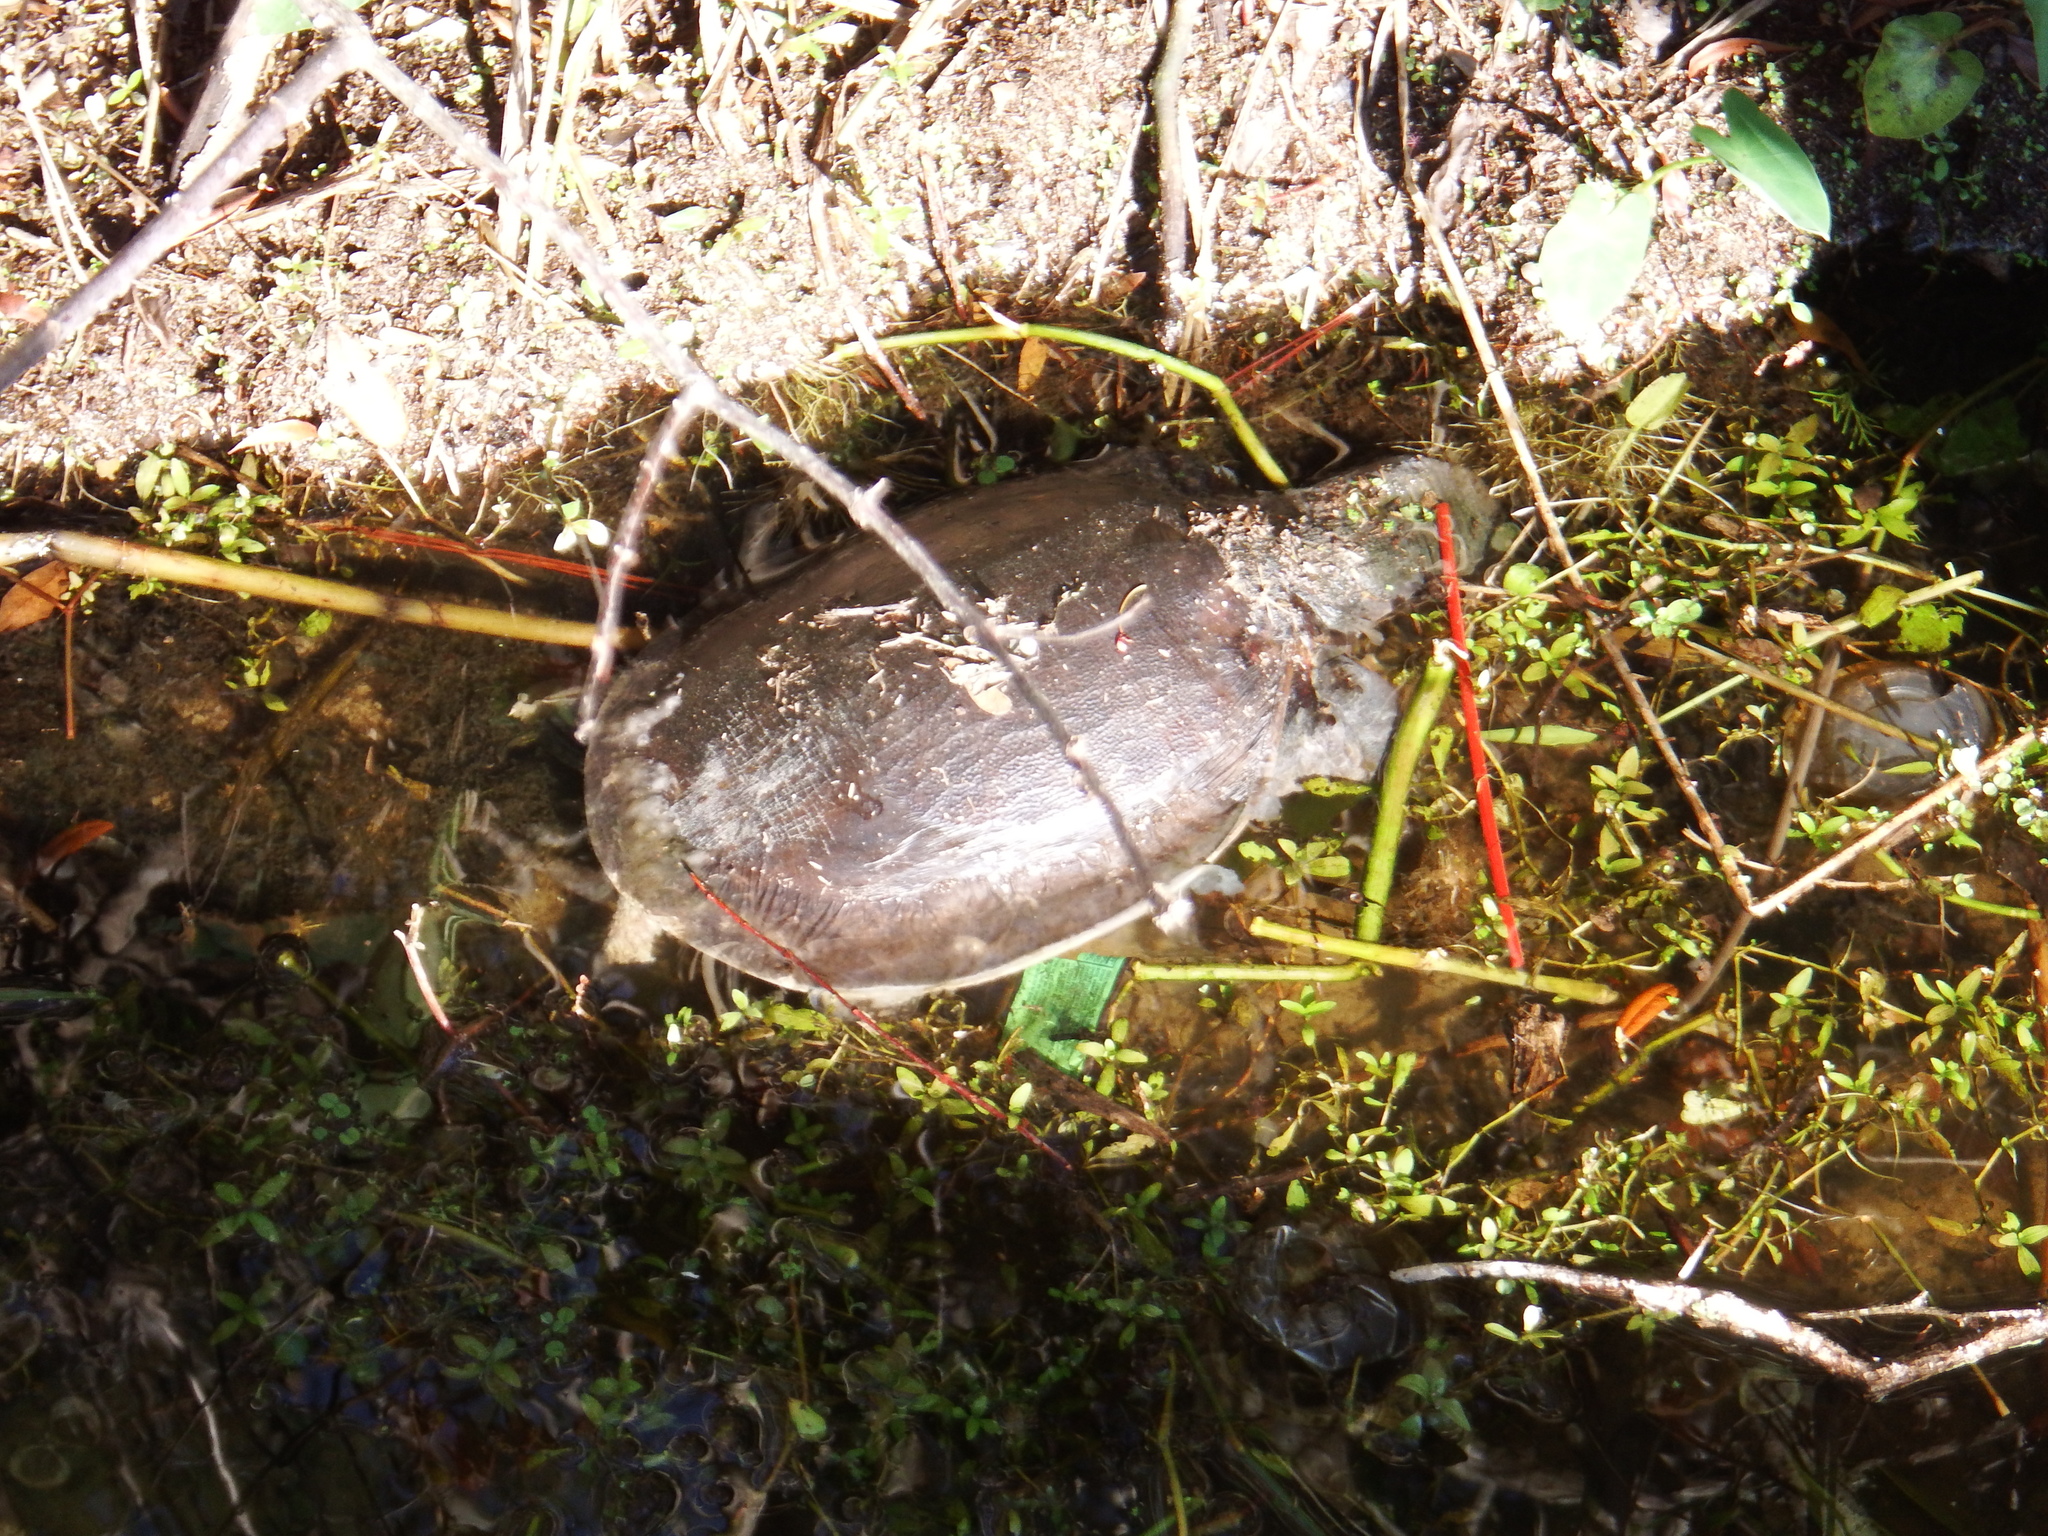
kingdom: Animalia
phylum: Chordata
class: Testudines
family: Trionychidae
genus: Apalone
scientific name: Apalone ferox
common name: Florida softshell turtle
